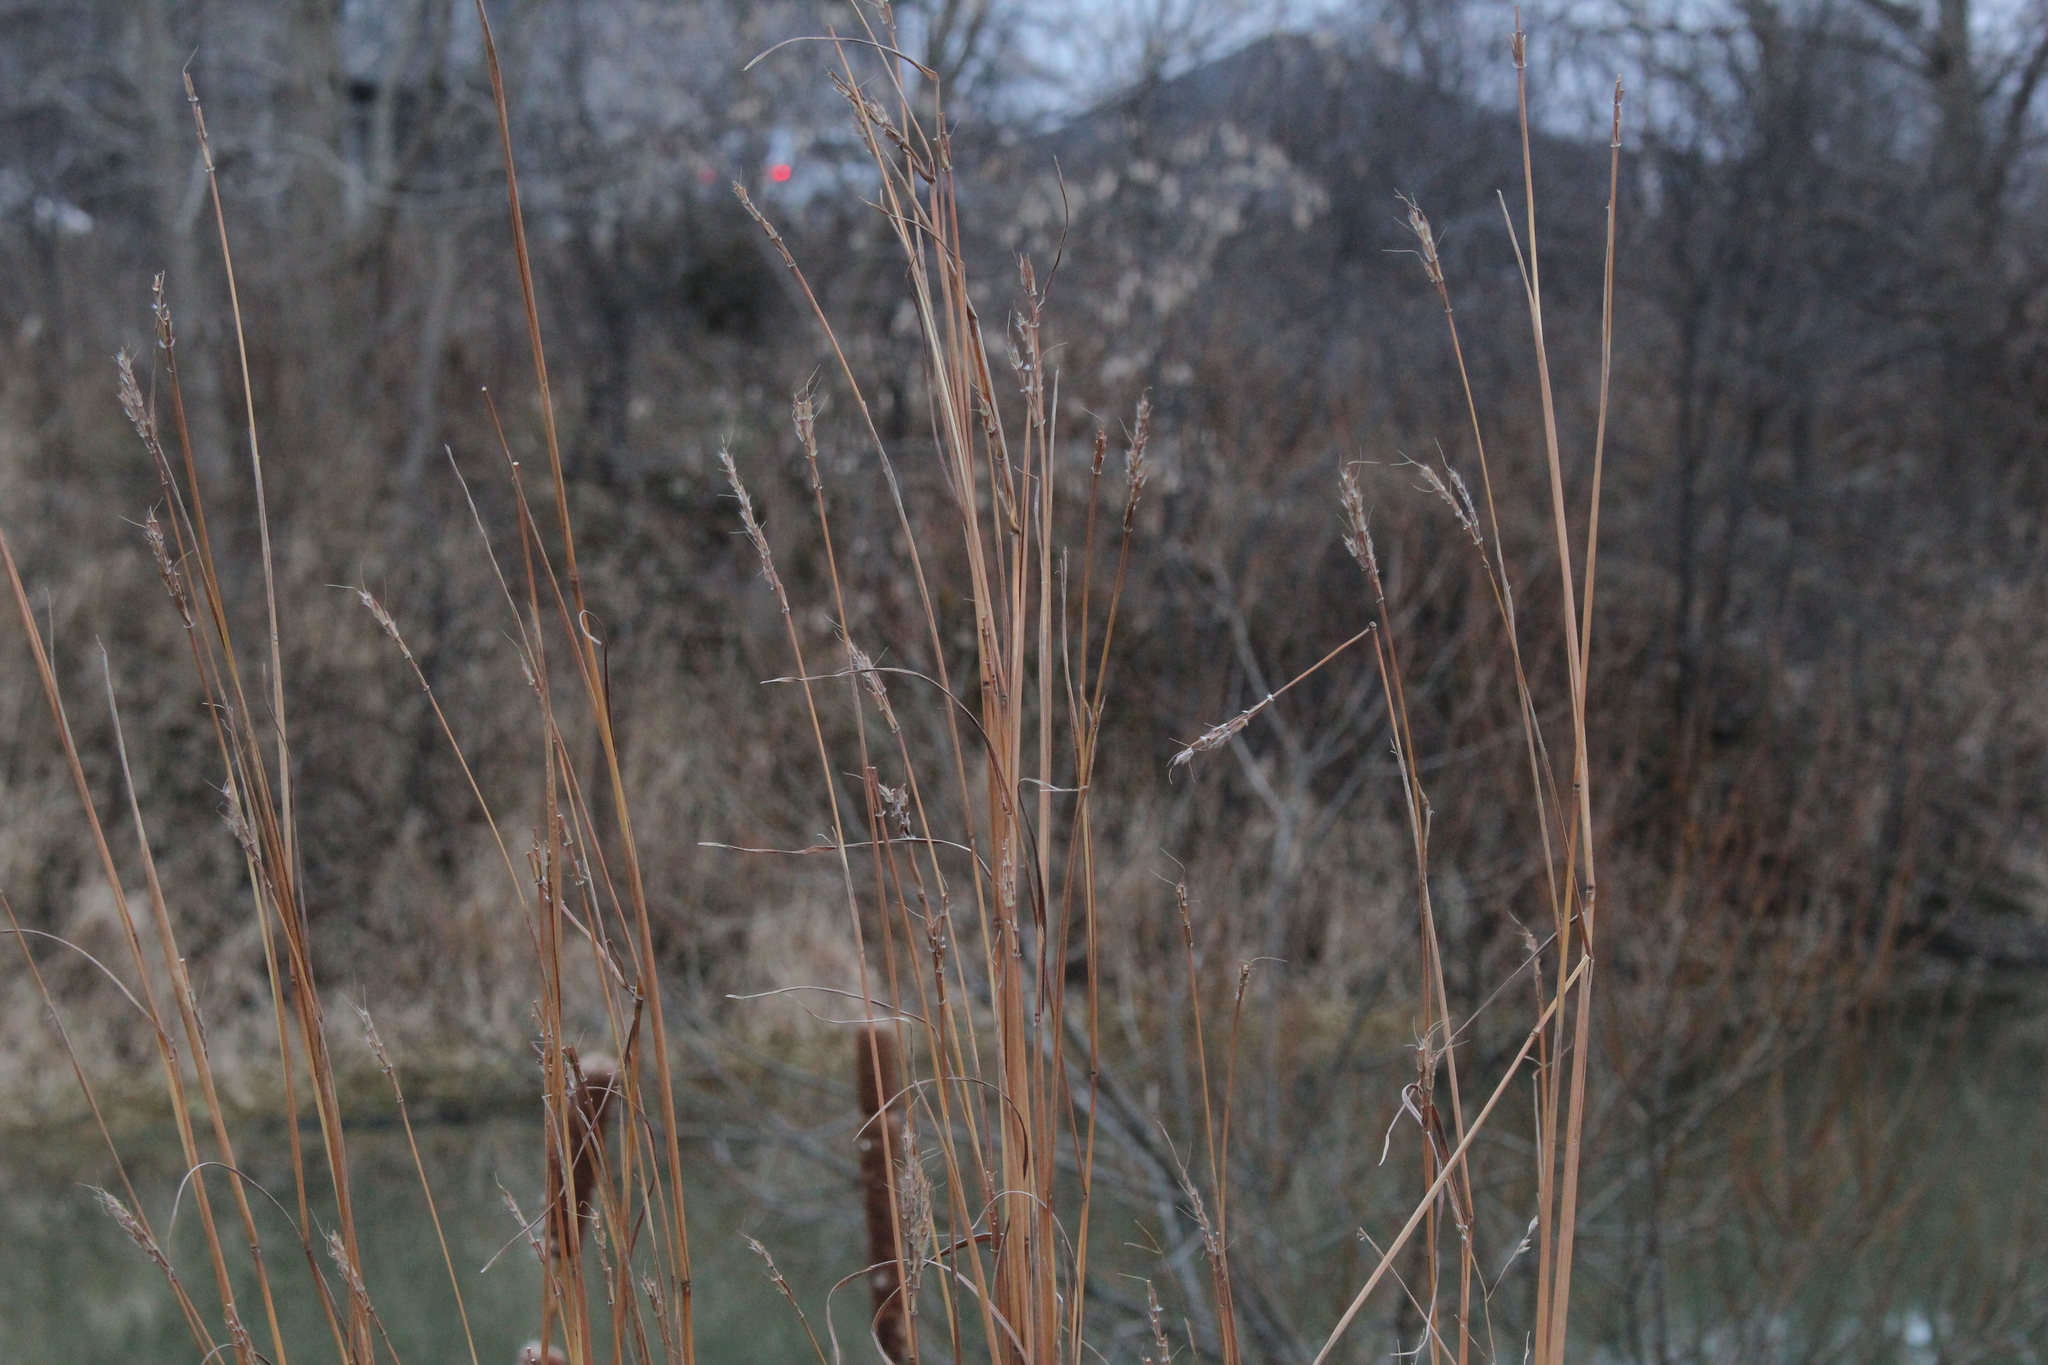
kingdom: Plantae
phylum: Tracheophyta
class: Liliopsida
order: Poales
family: Poaceae
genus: Andropogon
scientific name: Andropogon gerardi
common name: Big bluestem
